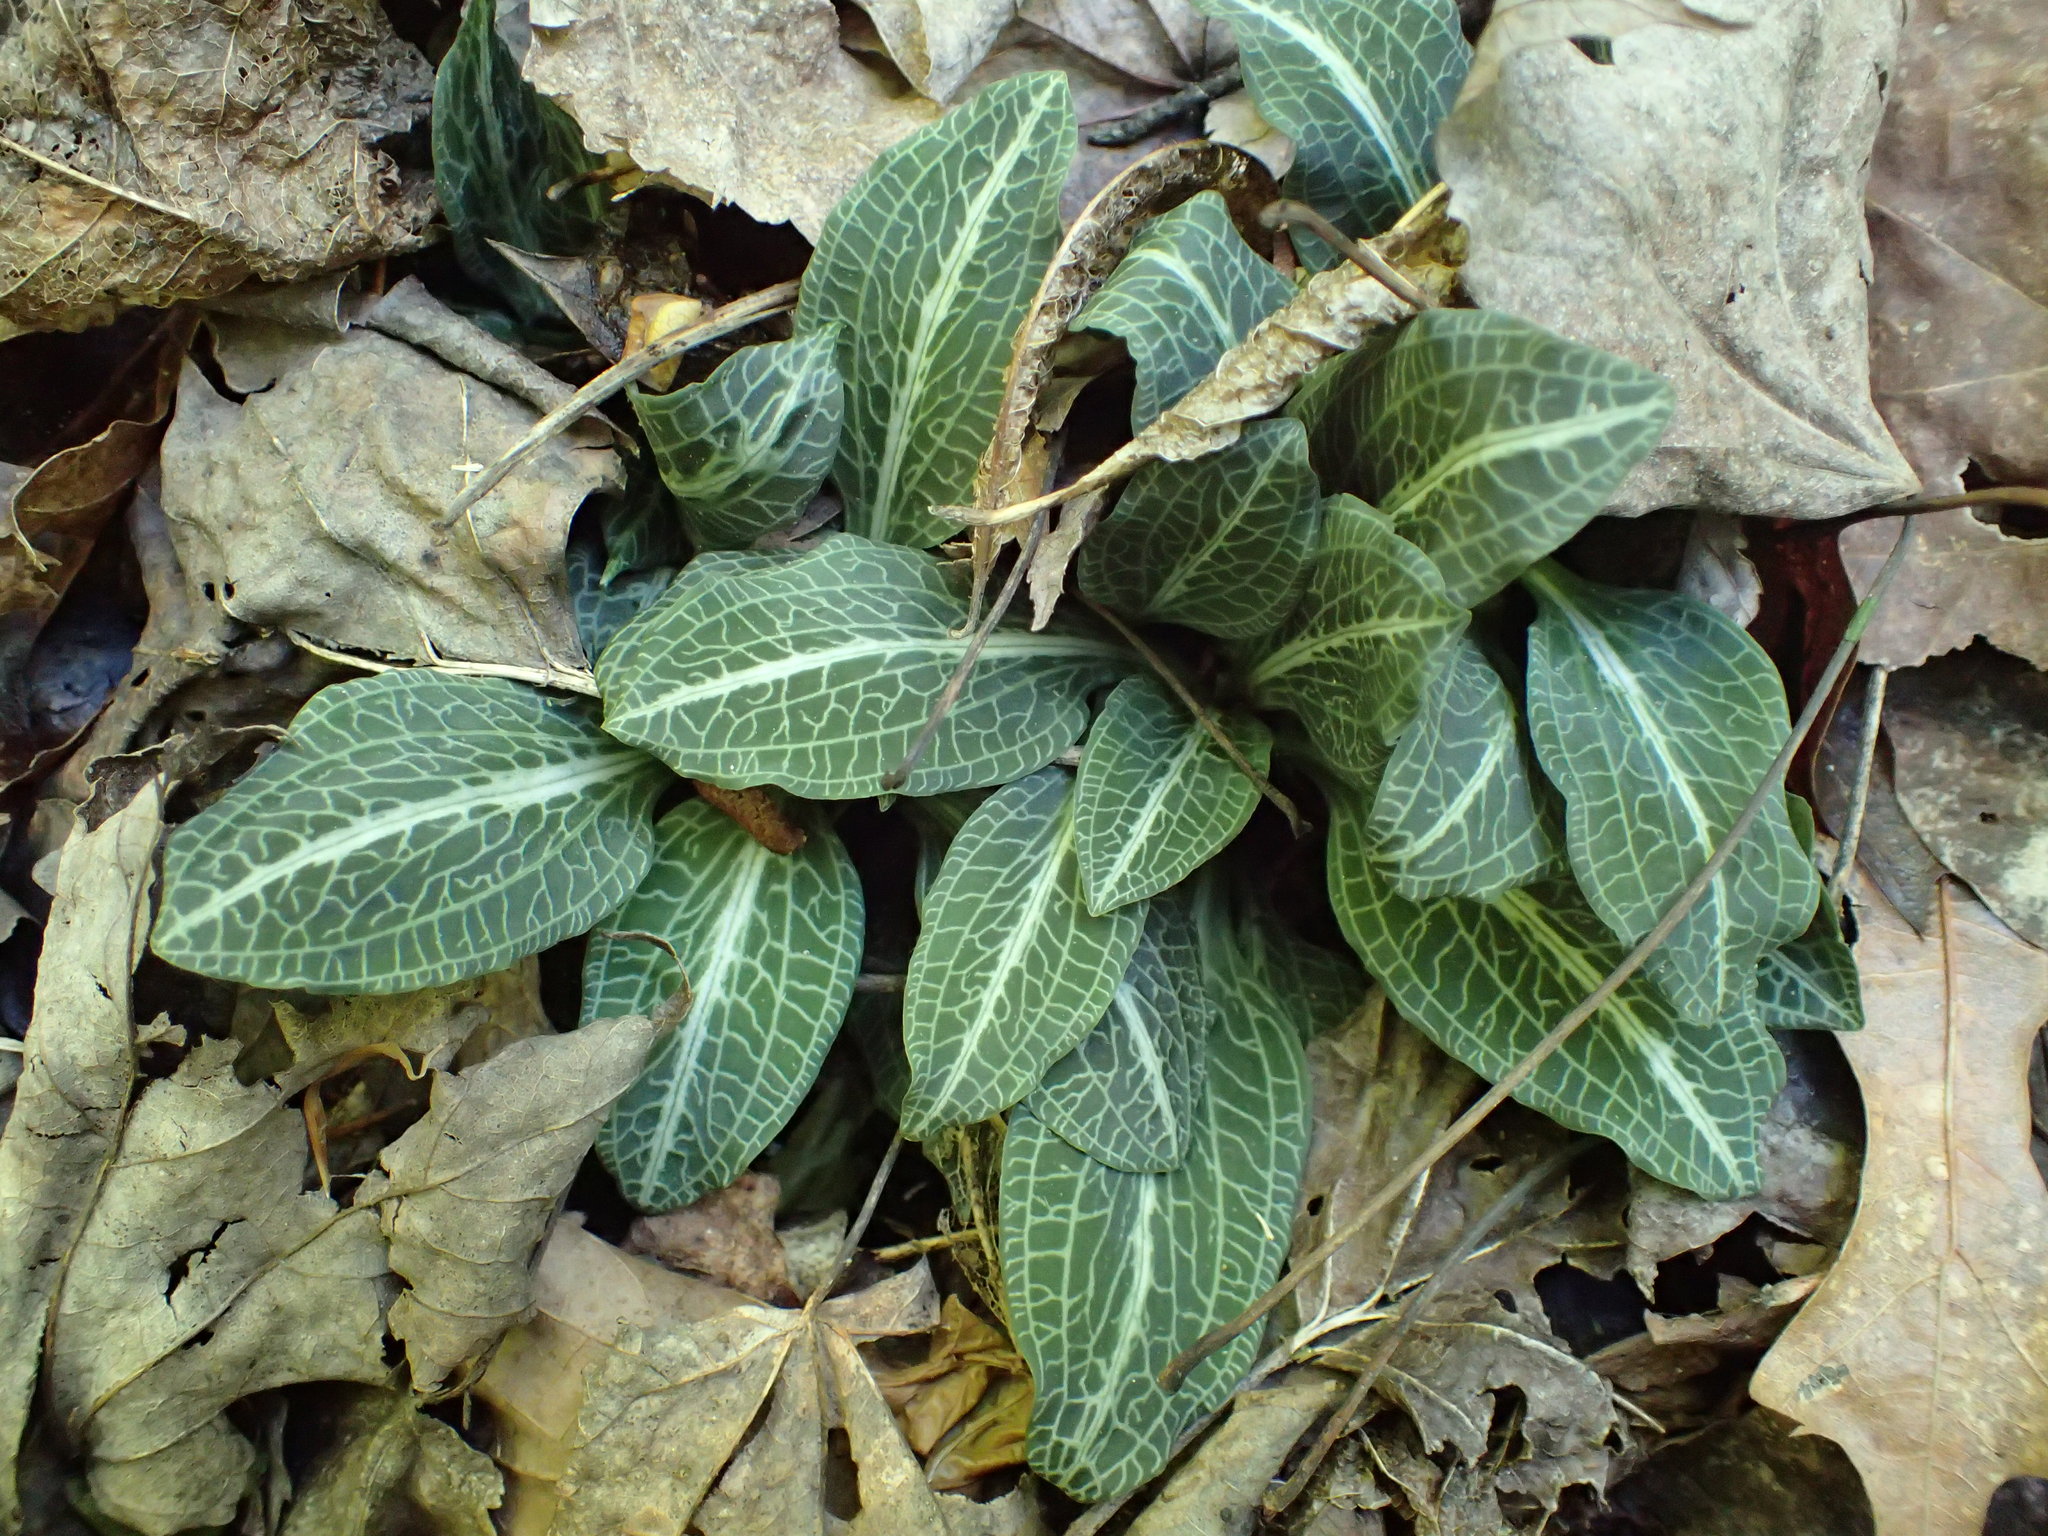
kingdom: Plantae
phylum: Tracheophyta
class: Liliopsida
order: Asparagales
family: Orchidaceae
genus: Goodyera
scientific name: Goodyera pubescens
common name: Downy rattlesnake-plantain
